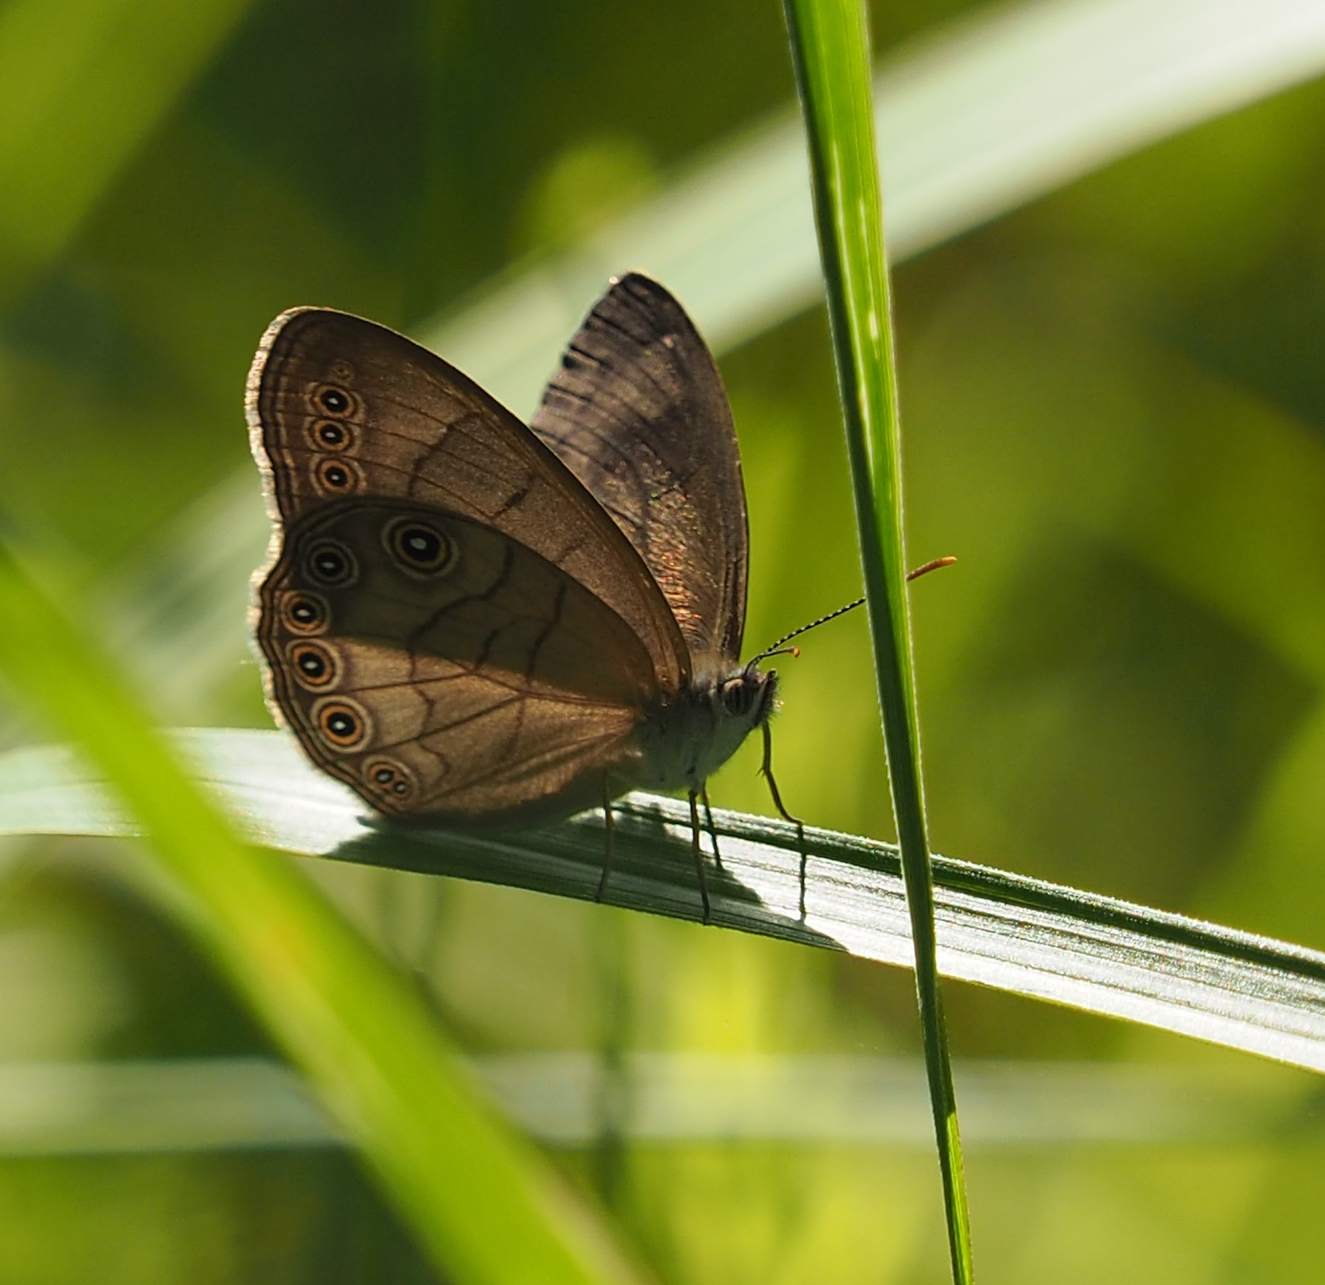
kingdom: Animalia
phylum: Arthropoda
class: Insecta
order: Lepidoptera
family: Nymphalidae
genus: Lethe
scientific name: Lethe eurydice
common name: Eyed brown
